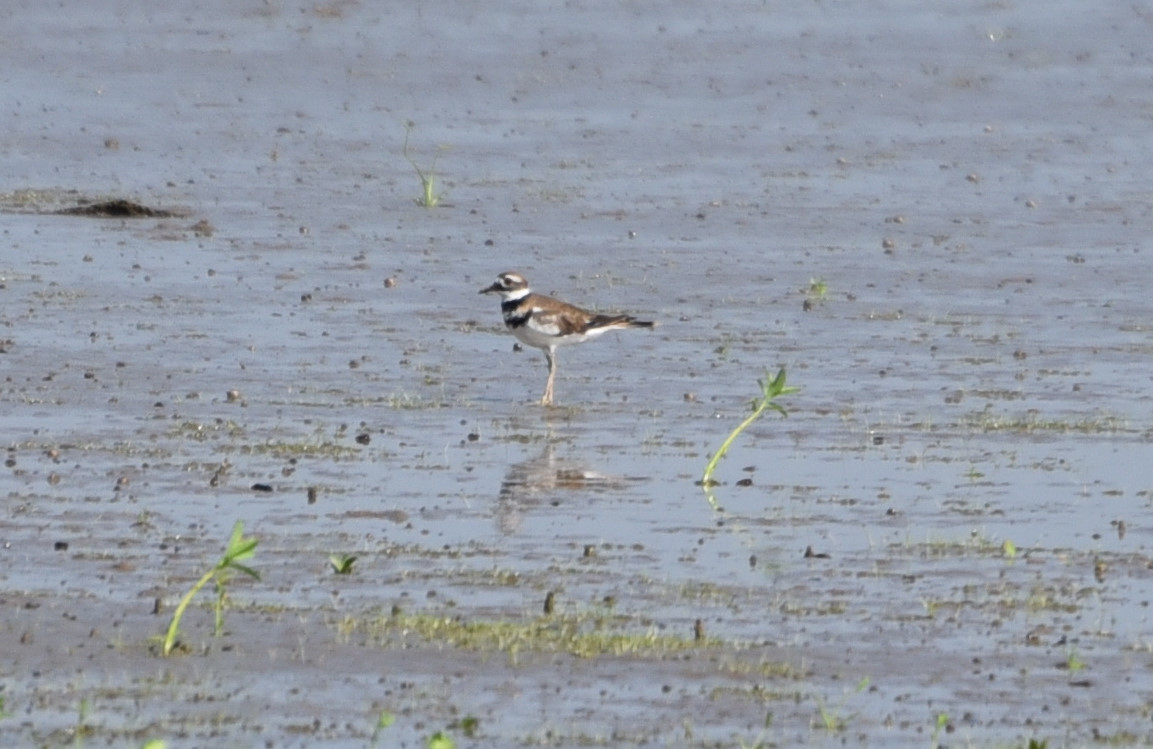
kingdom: Animalia
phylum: Chordata
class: Aves
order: Charadriiformes
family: Charadriidae
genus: Charadrius
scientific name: Charadrius vociferus
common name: Killdeer
